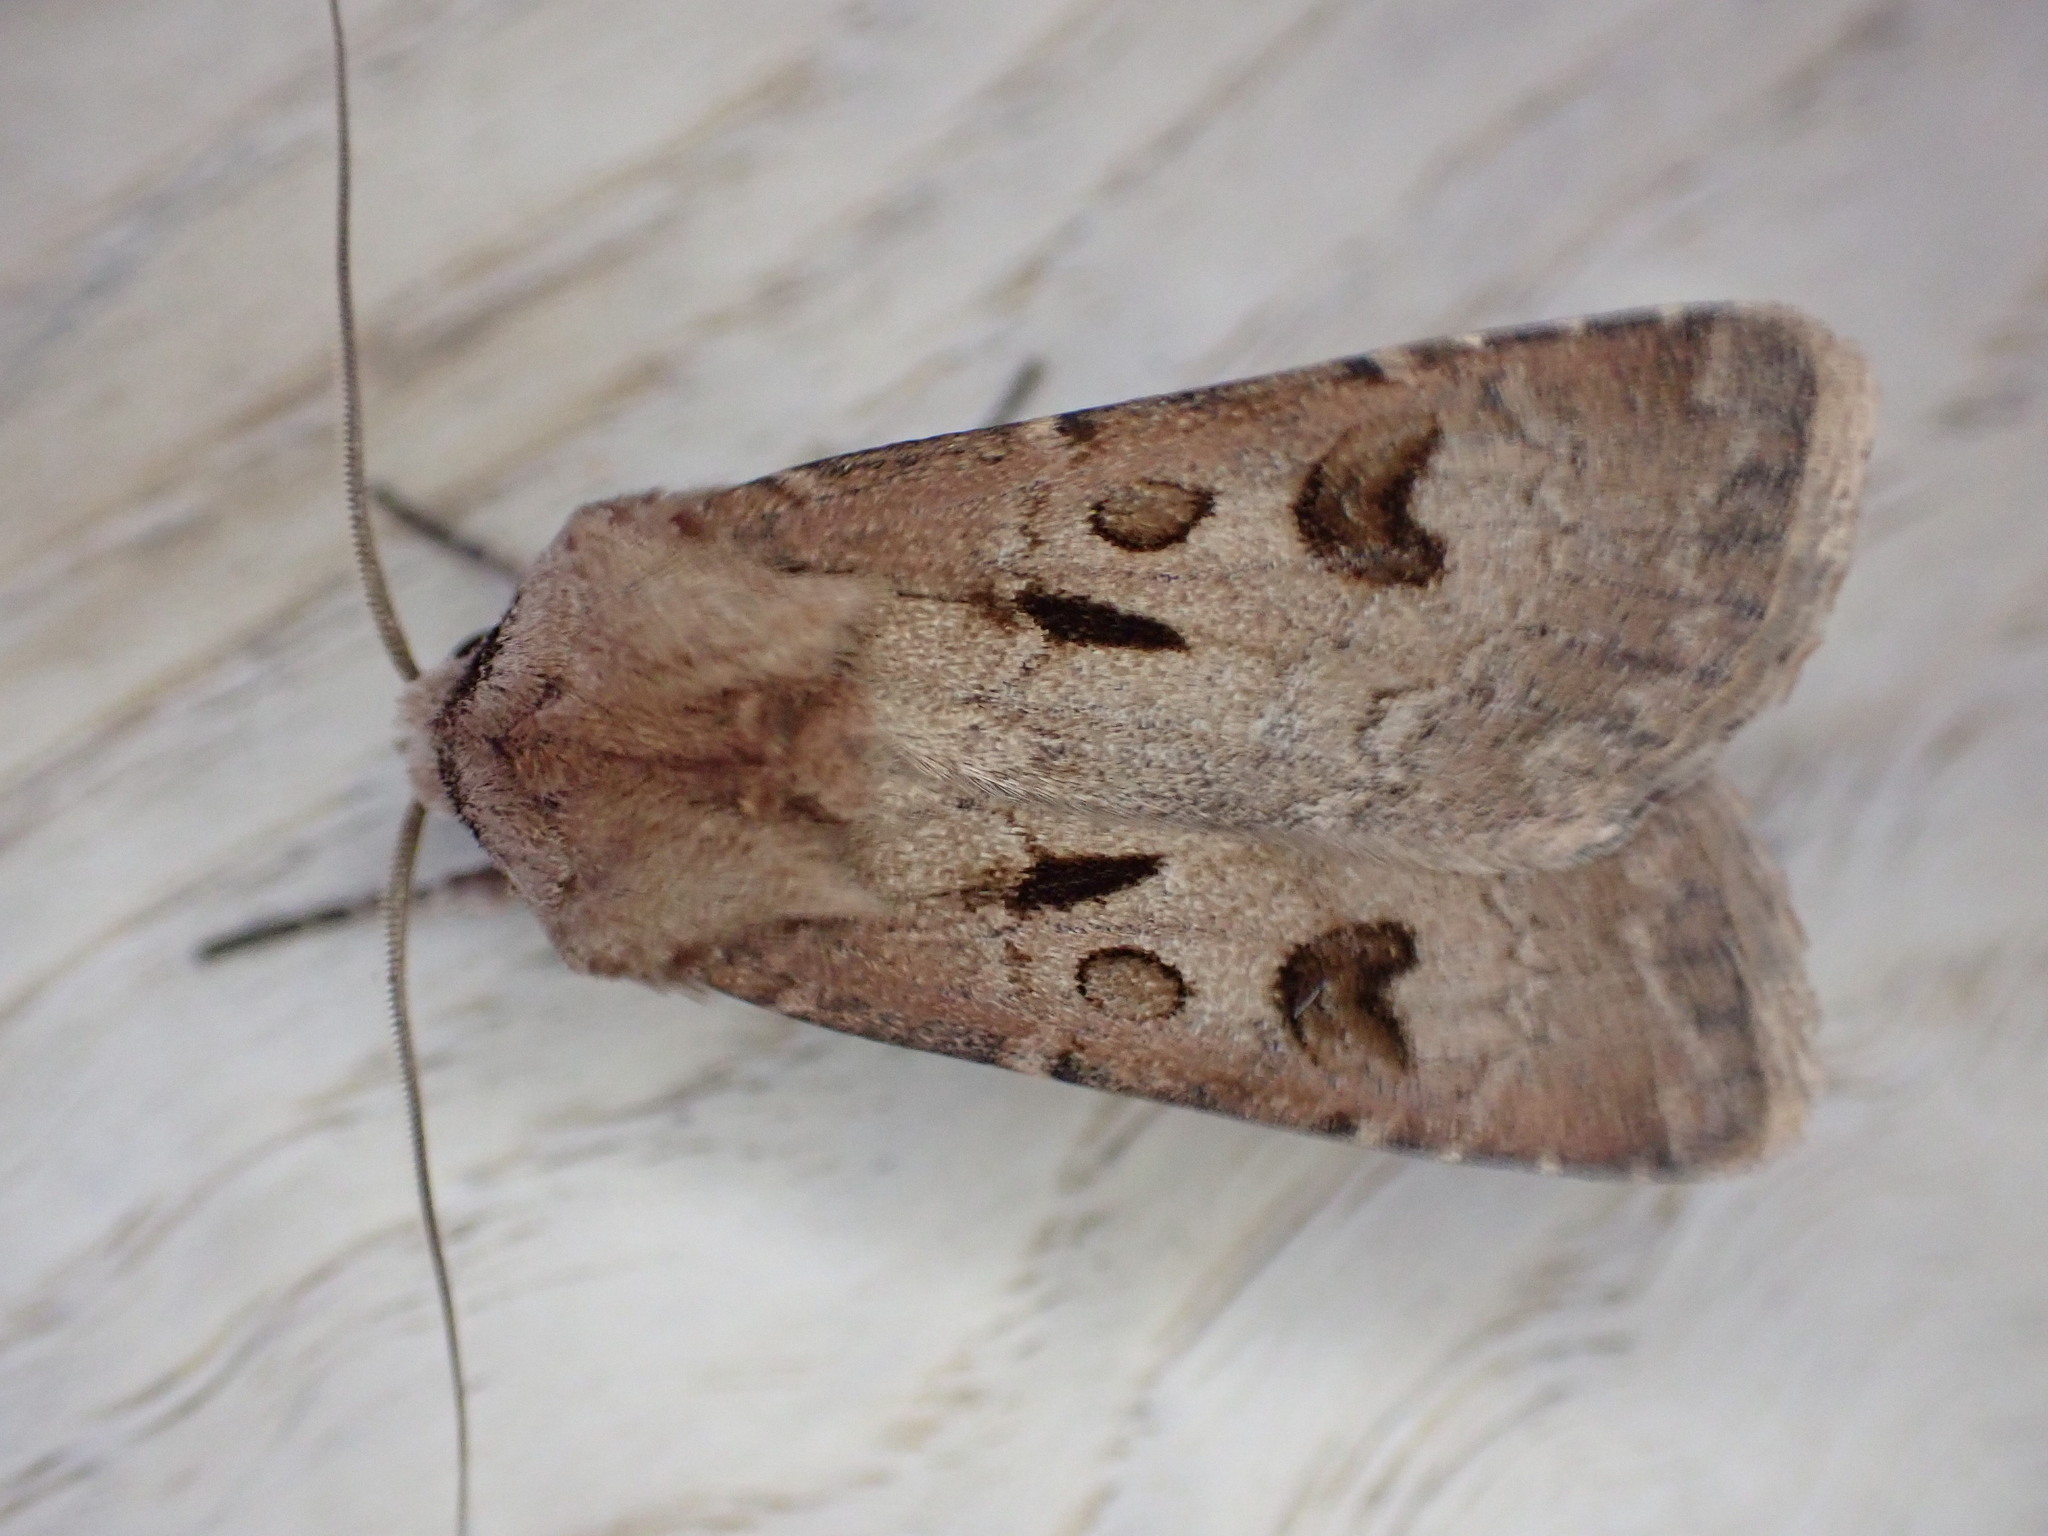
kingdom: Animalia
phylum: Arthropoda
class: Insecta
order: Lepidoptera
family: Noctuidae
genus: Agrotis
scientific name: Agrotis exclamationis
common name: Heart and dart
